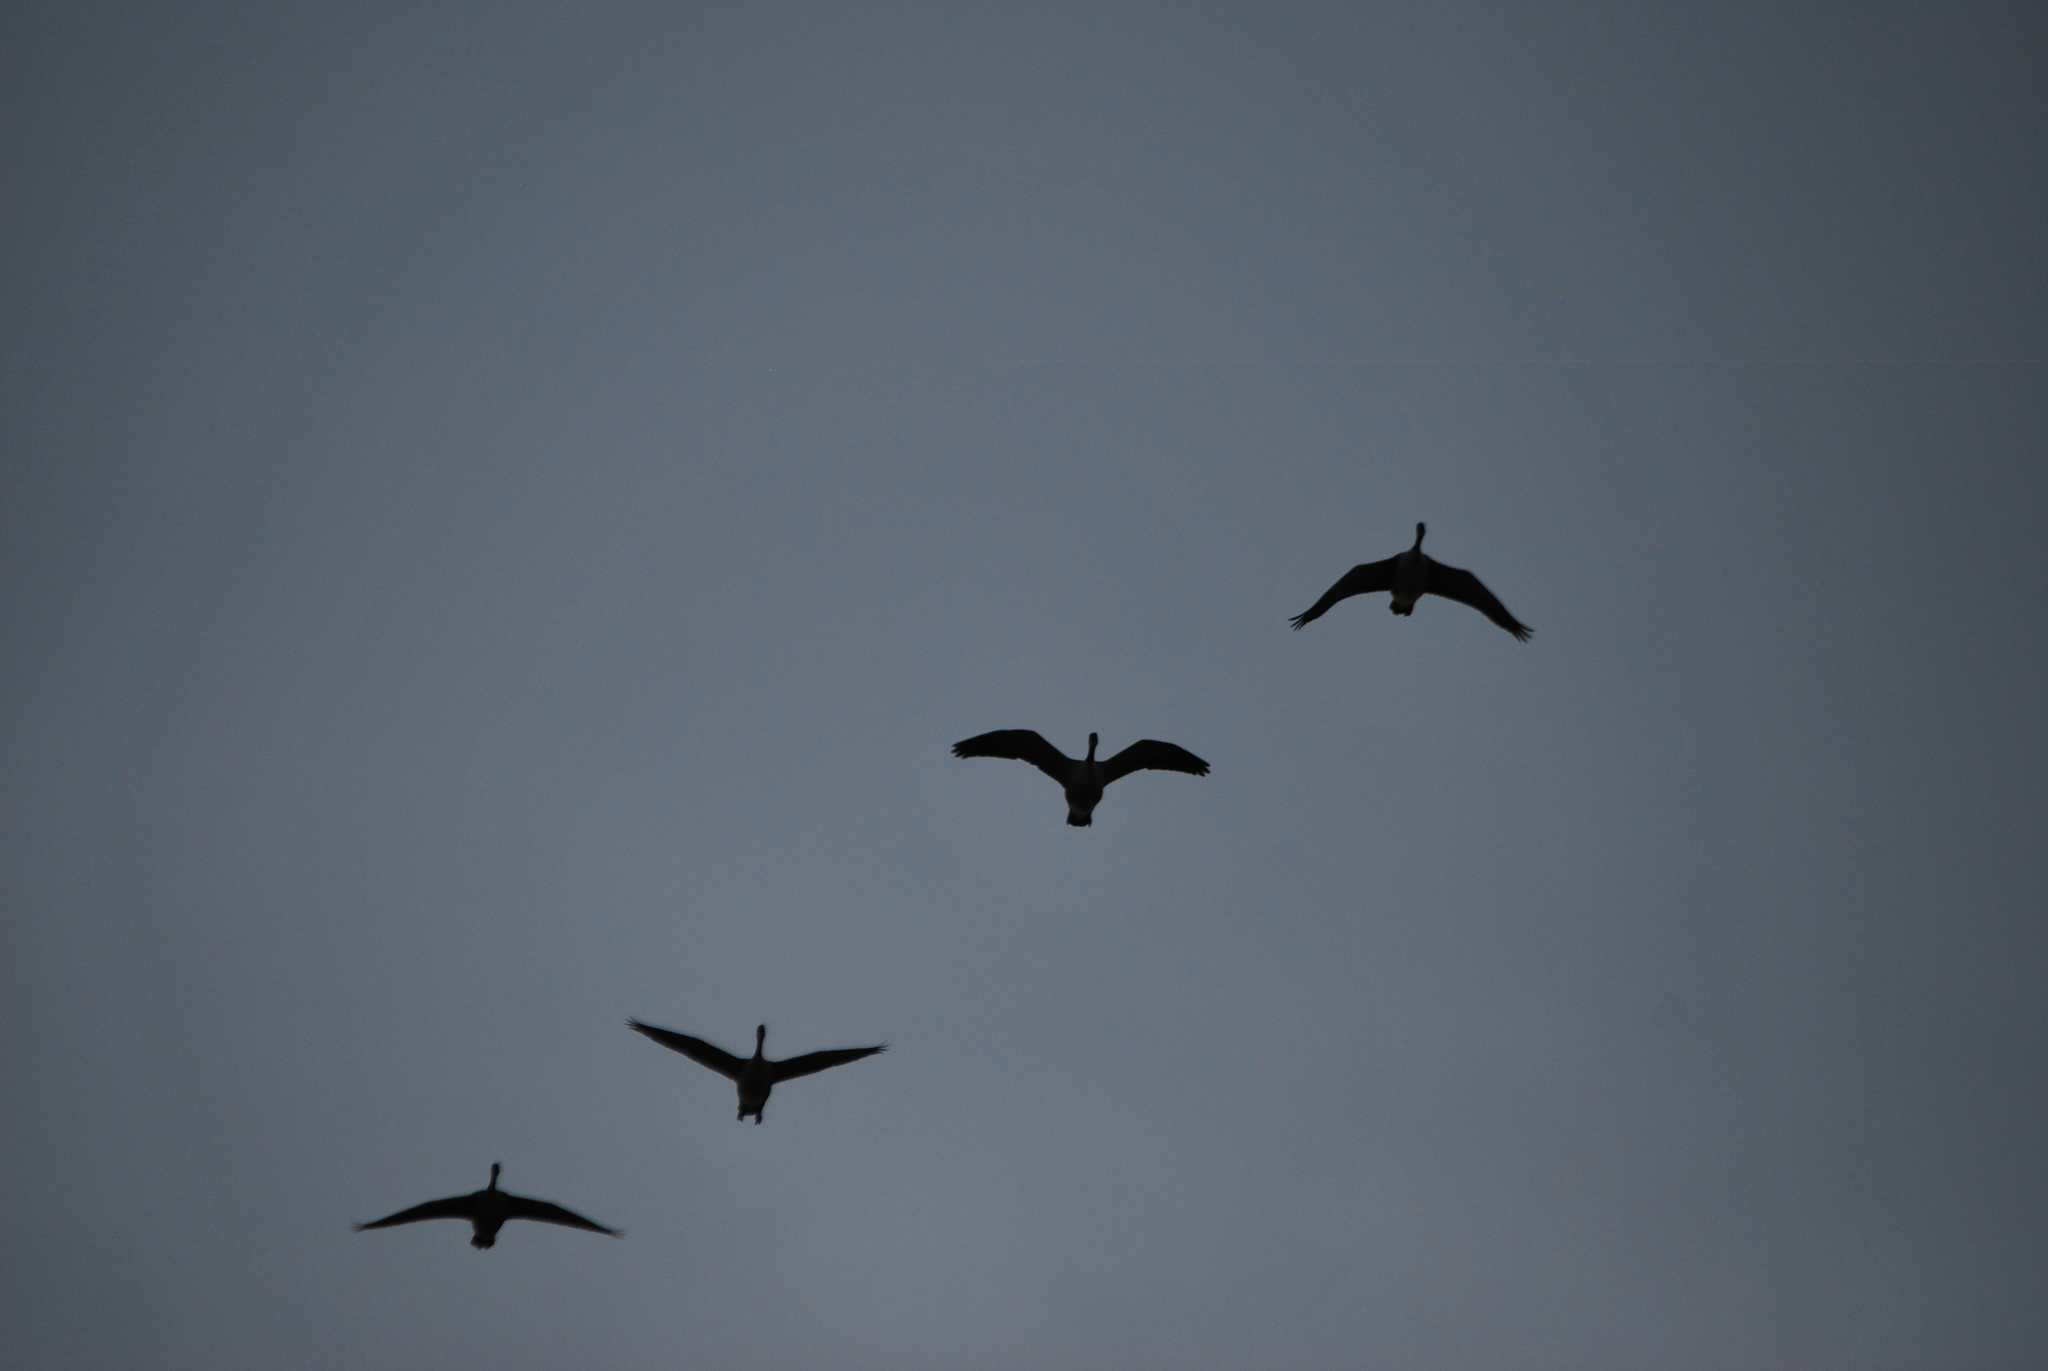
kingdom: Animalia
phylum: Chordata
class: Aves
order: Anseriformes
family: Anatidae
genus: Branta
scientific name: Branta canadensis
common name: Canada goose
